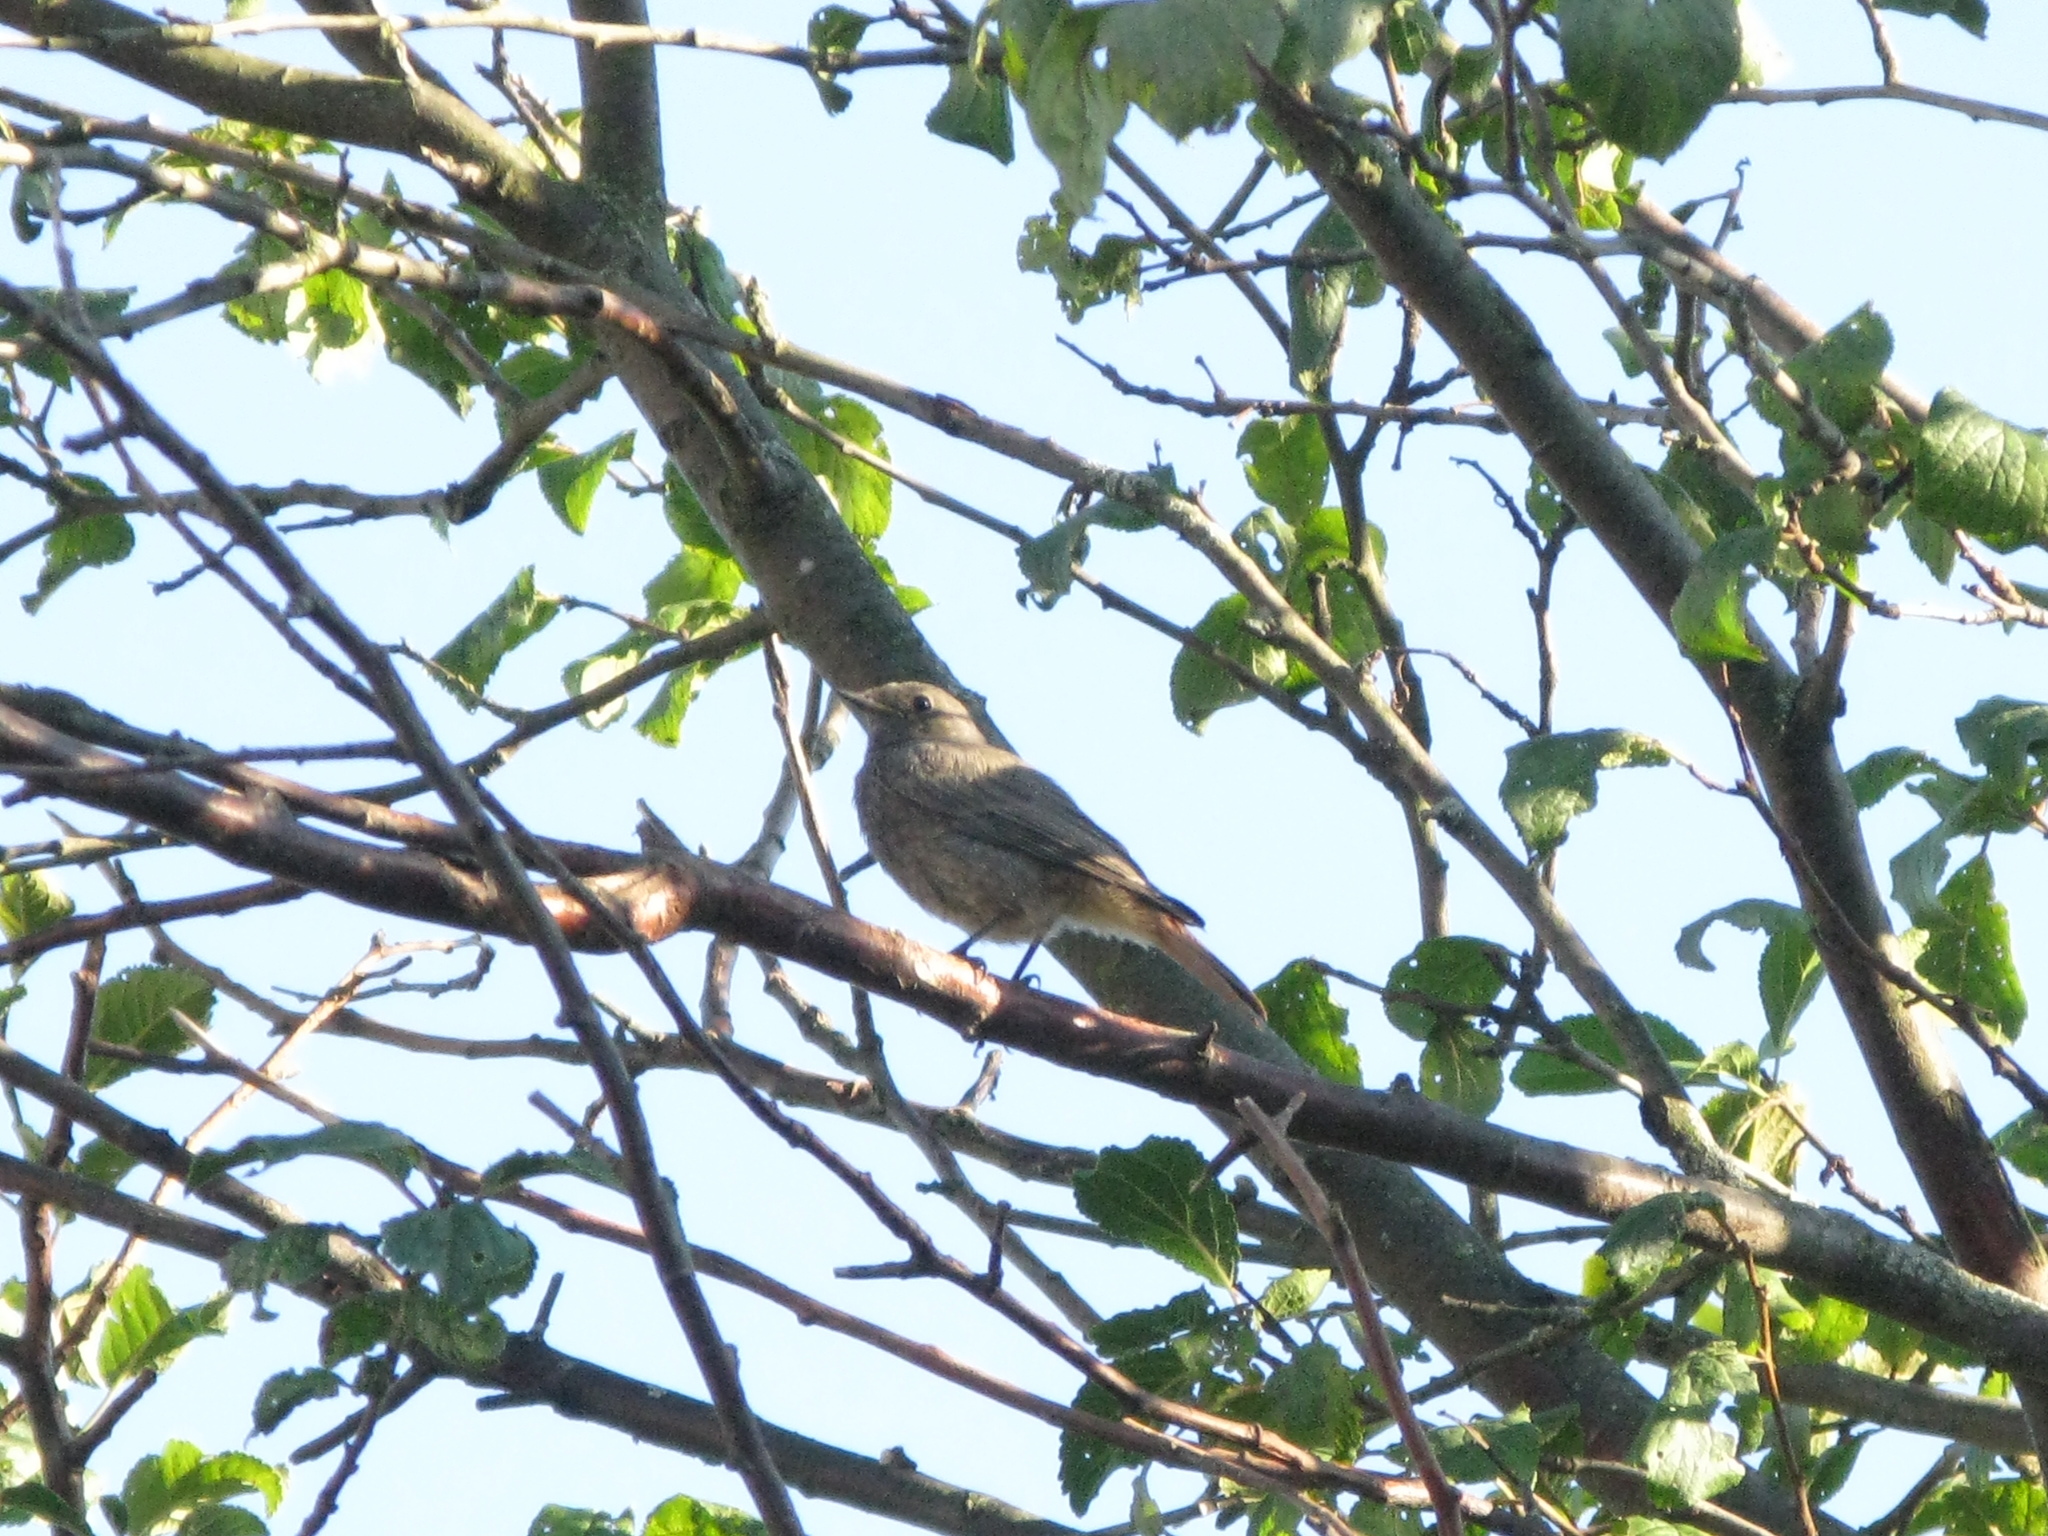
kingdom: Animalia
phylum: Chordata
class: Aves
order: Passeriformes
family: Muscicapidae
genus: Phoenicurus
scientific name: Phoenicurus ochruros
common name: Black redstart
